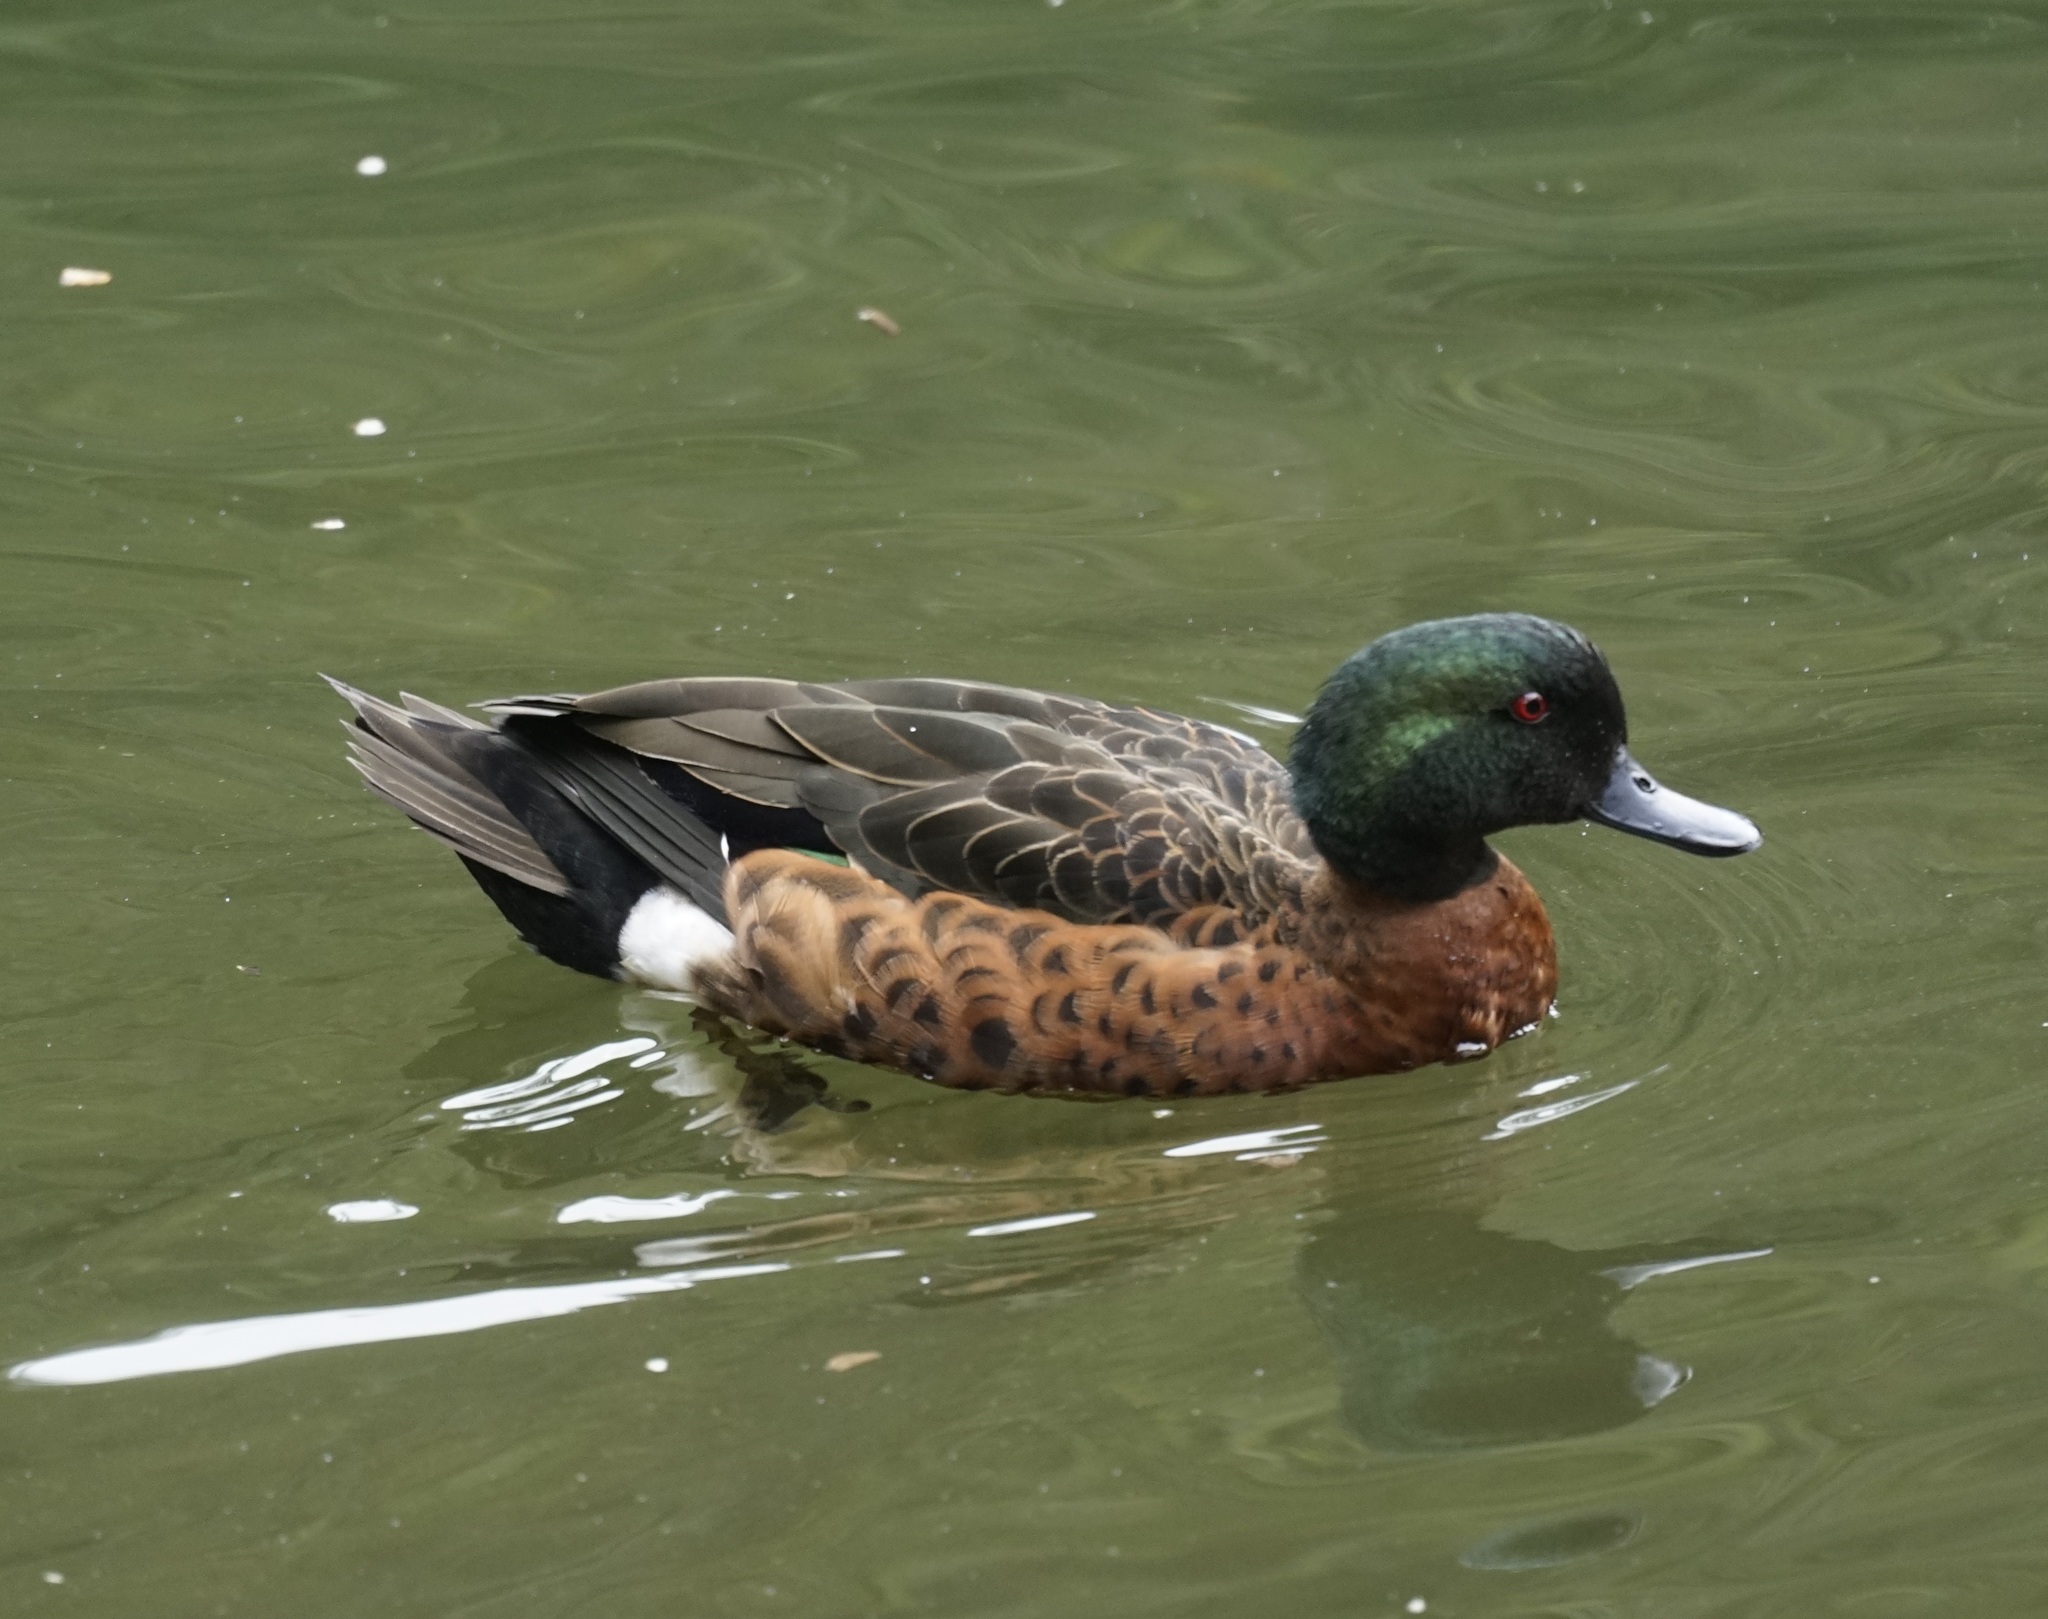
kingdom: Animalia
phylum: Chordata
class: Aves
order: Anseriformes
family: Anatidae
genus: Anas
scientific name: Anas castanea
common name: Chestnut teal
